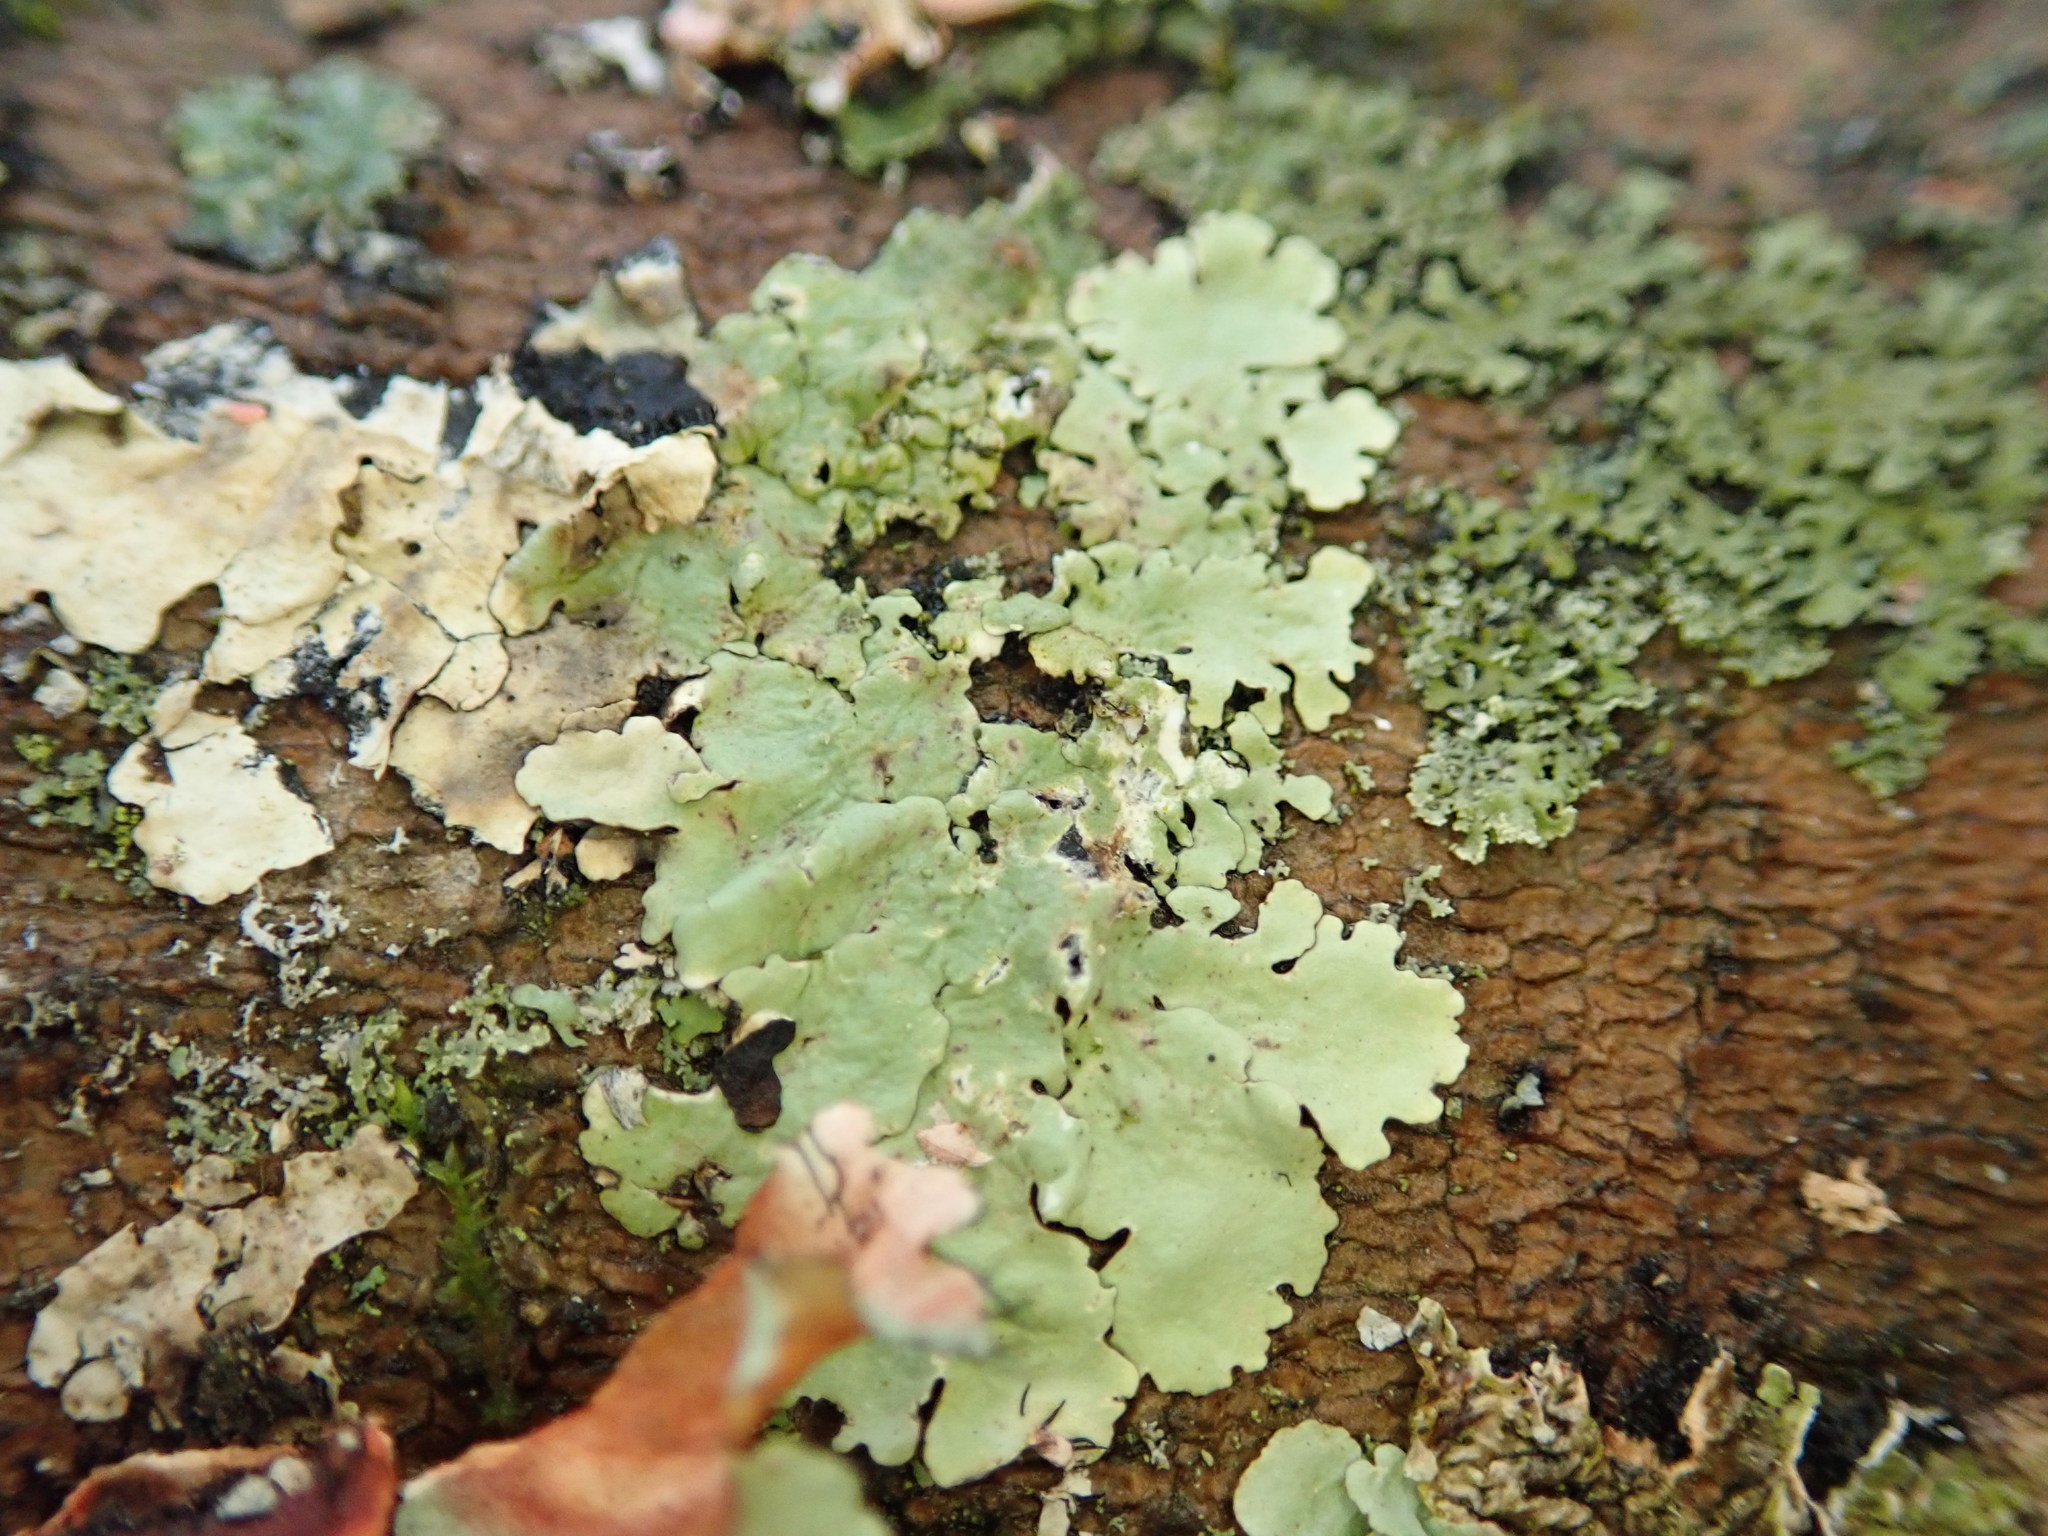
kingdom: Fungi
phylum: Ascomycota
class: Lecanoromycetes
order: Lecanorales
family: Parmeliaceae
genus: Flavoparmelia
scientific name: Flavoparmelia caperata
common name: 40-mile per hour lichen
